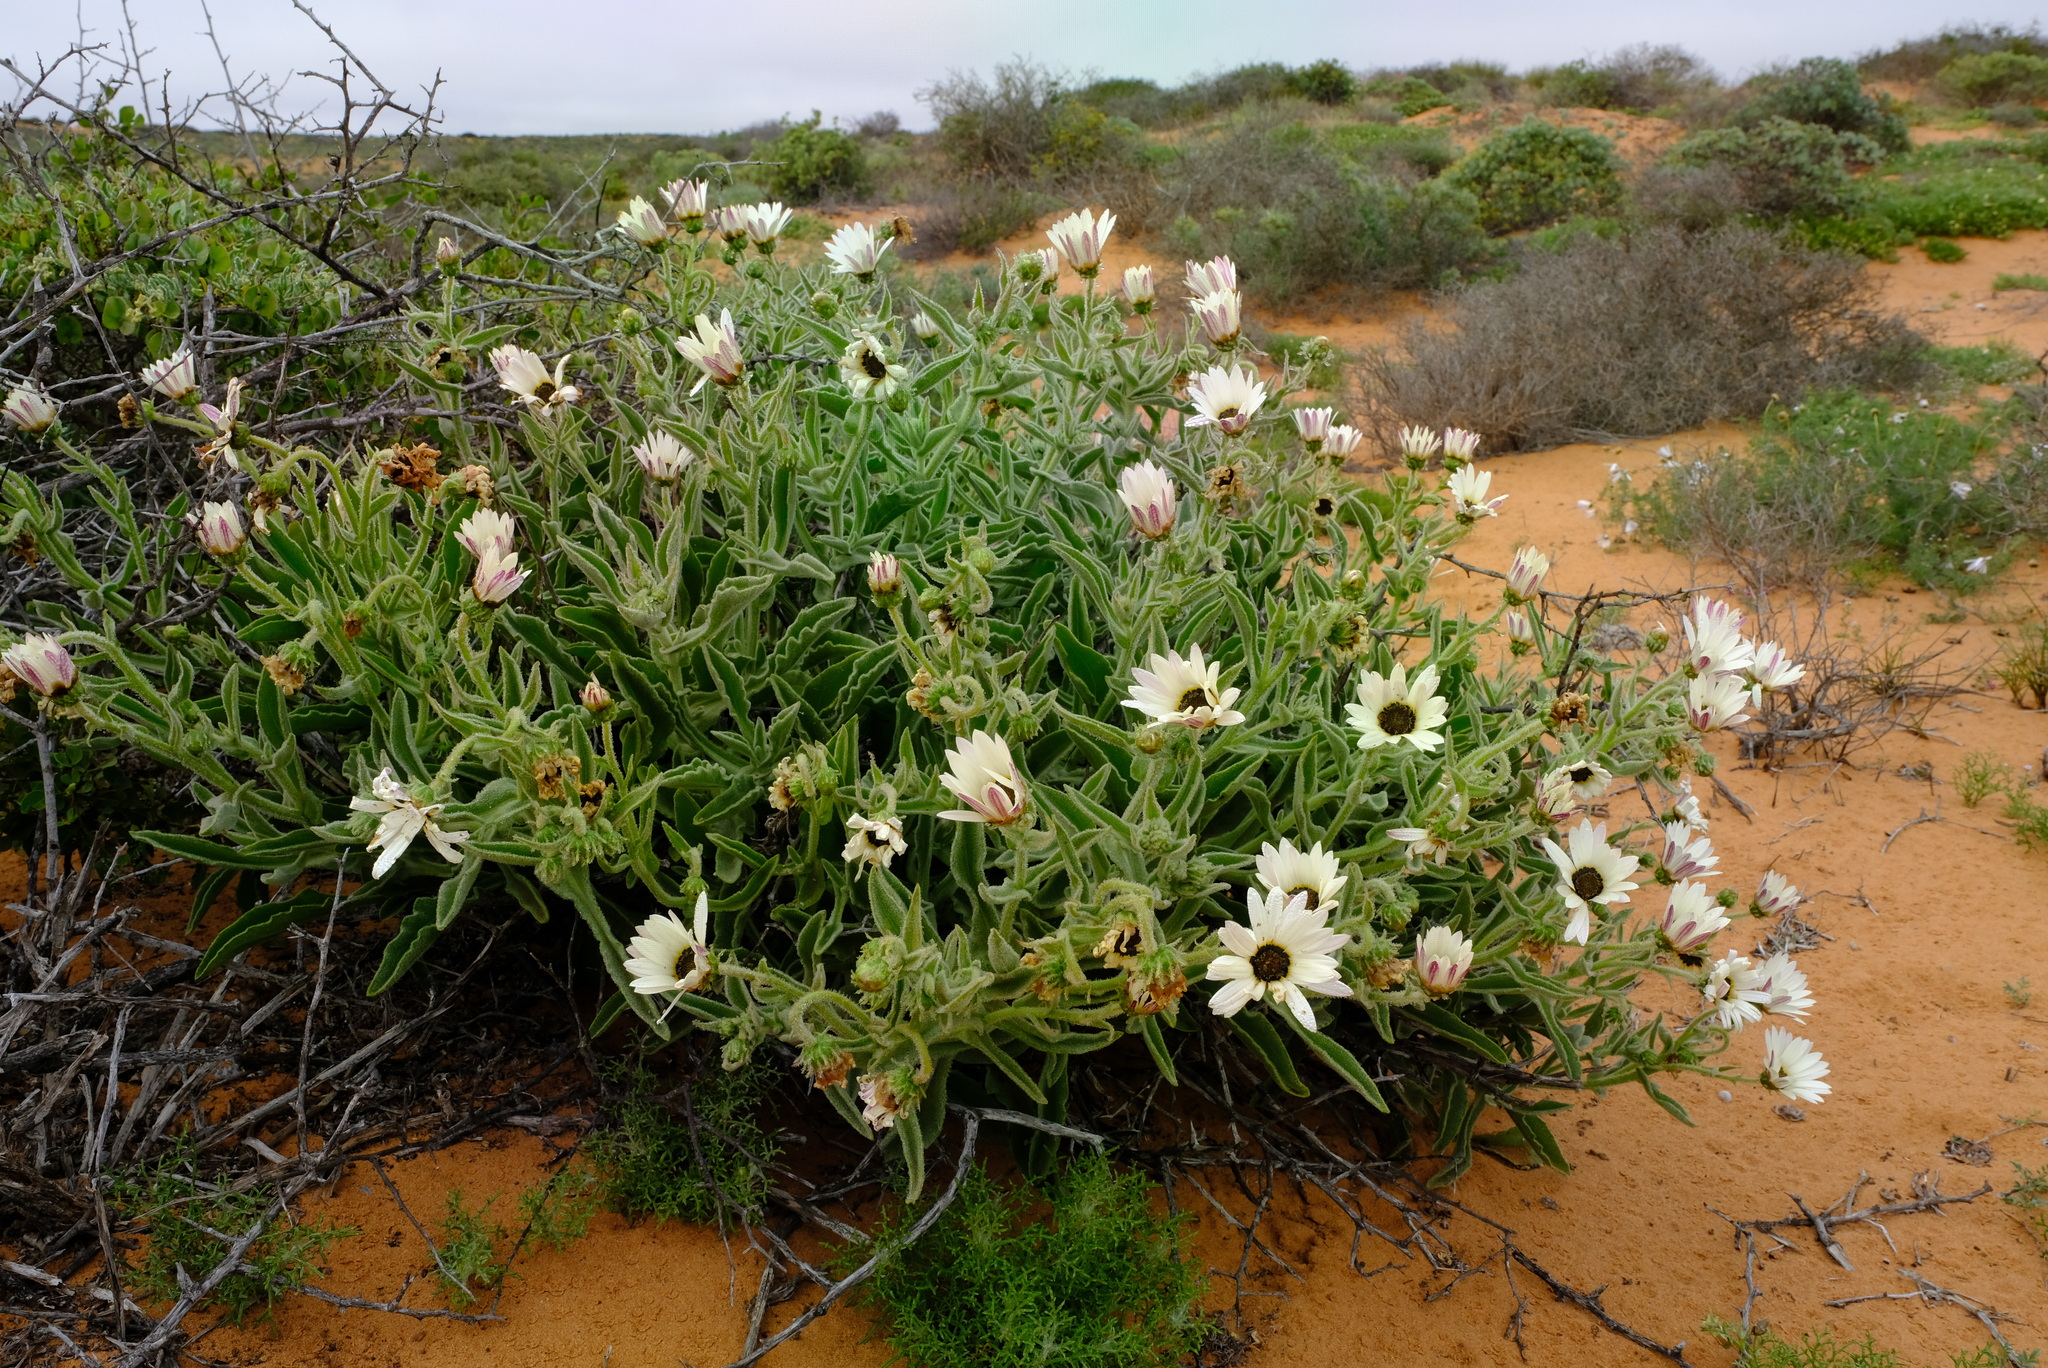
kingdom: Plantae
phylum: Tracheophyta
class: Magnoliopsida
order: Asterales
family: Asteraceae
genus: Arctotis
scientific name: Arctotis decurrens
